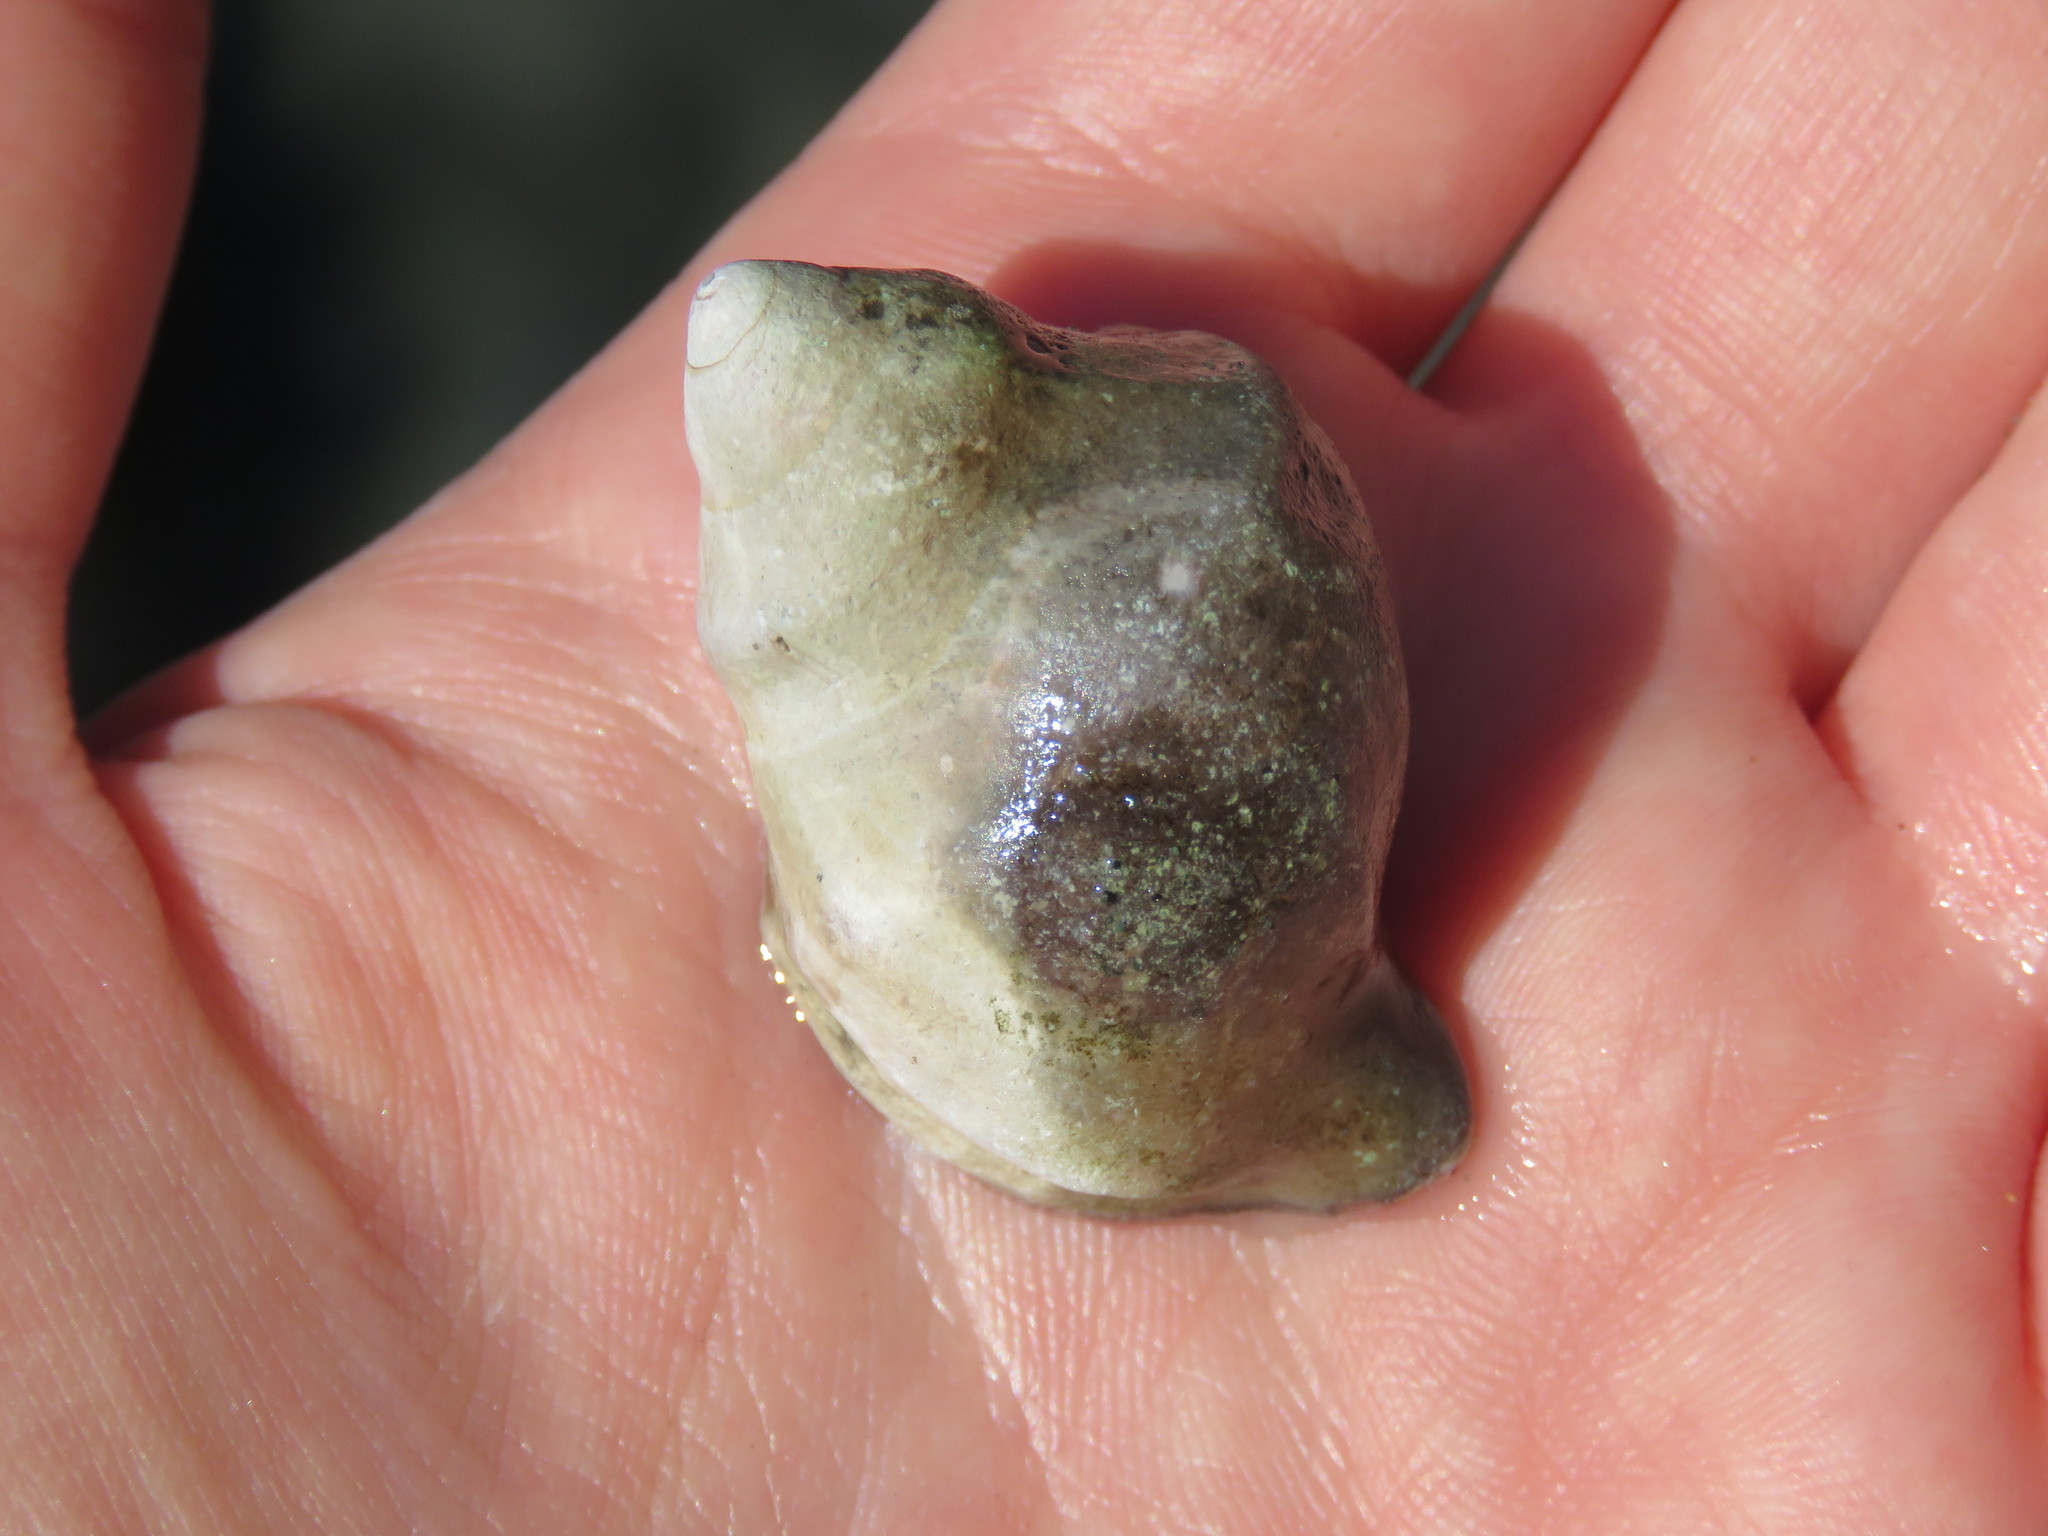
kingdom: Animalia
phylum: Mollusca
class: Gastropoda
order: Neogastropoda
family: Muricidae
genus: Nucella
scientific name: Nucella lamellosa
